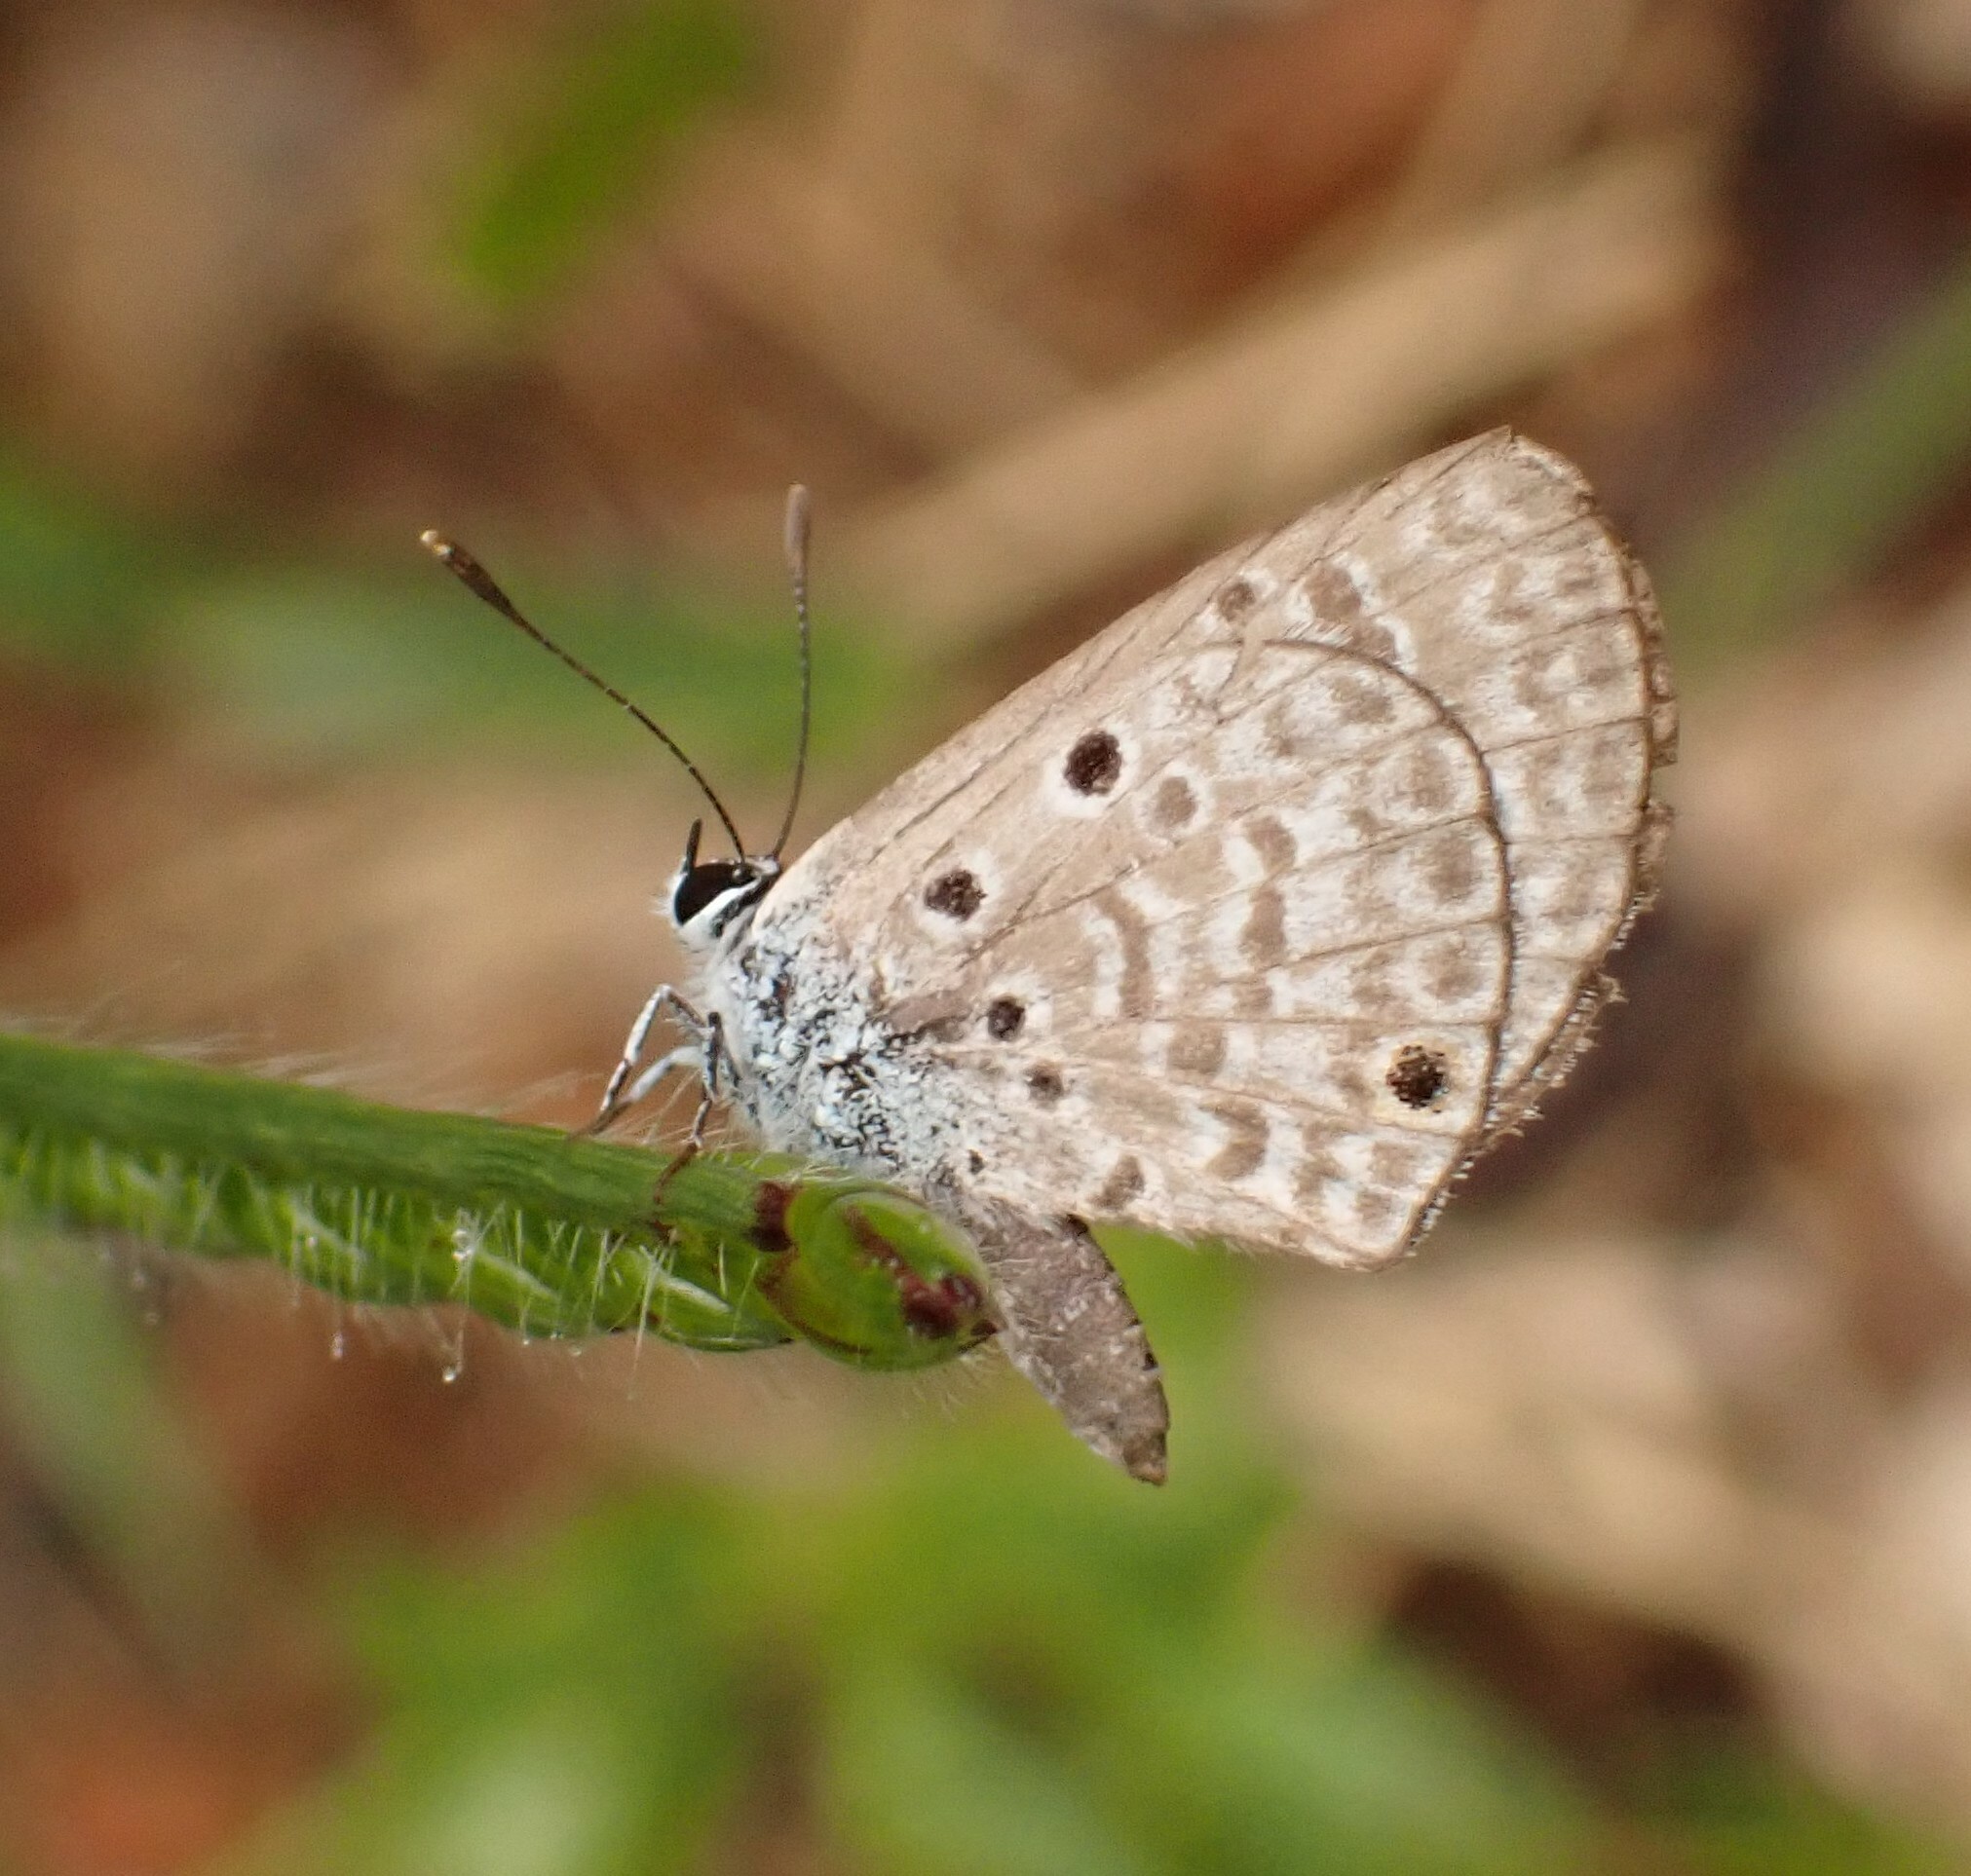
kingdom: Animalia
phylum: Arthropoda
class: Insecta
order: Lepidoptera
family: Lycaenidae
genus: Hemiargus
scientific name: Hemiargus hanno
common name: Common blue
